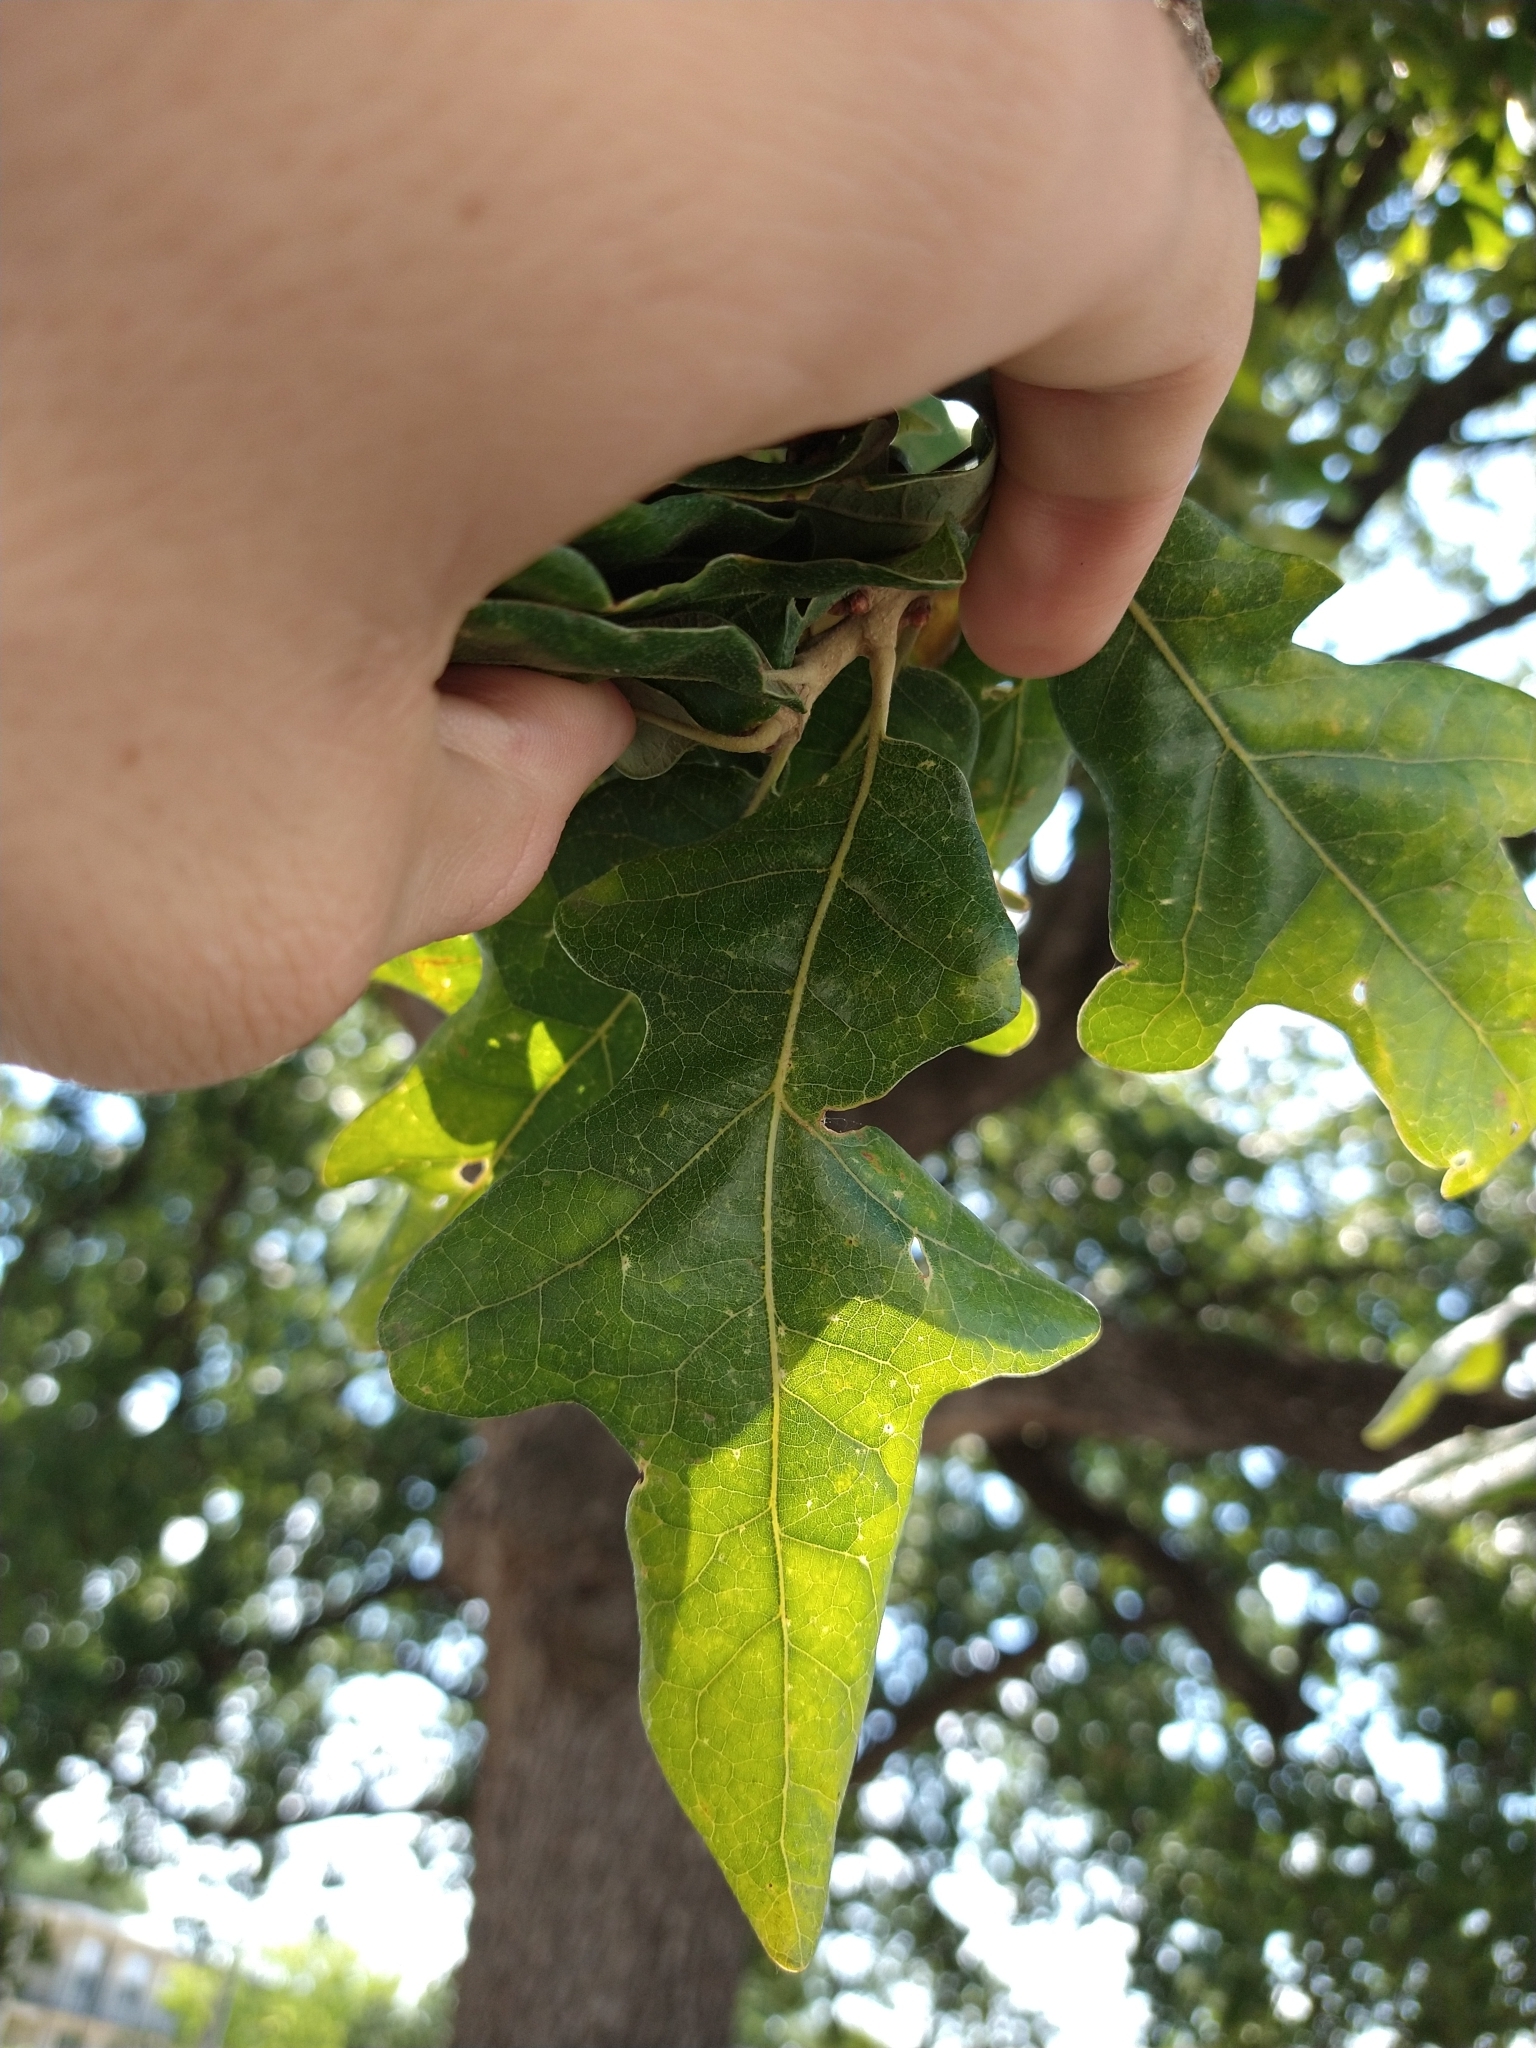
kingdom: Plantae
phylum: Tracheophyta
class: Magnoliopsida
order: Fagales
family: Fagaceae
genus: Quercus
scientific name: Quercus stellata
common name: Post oak
